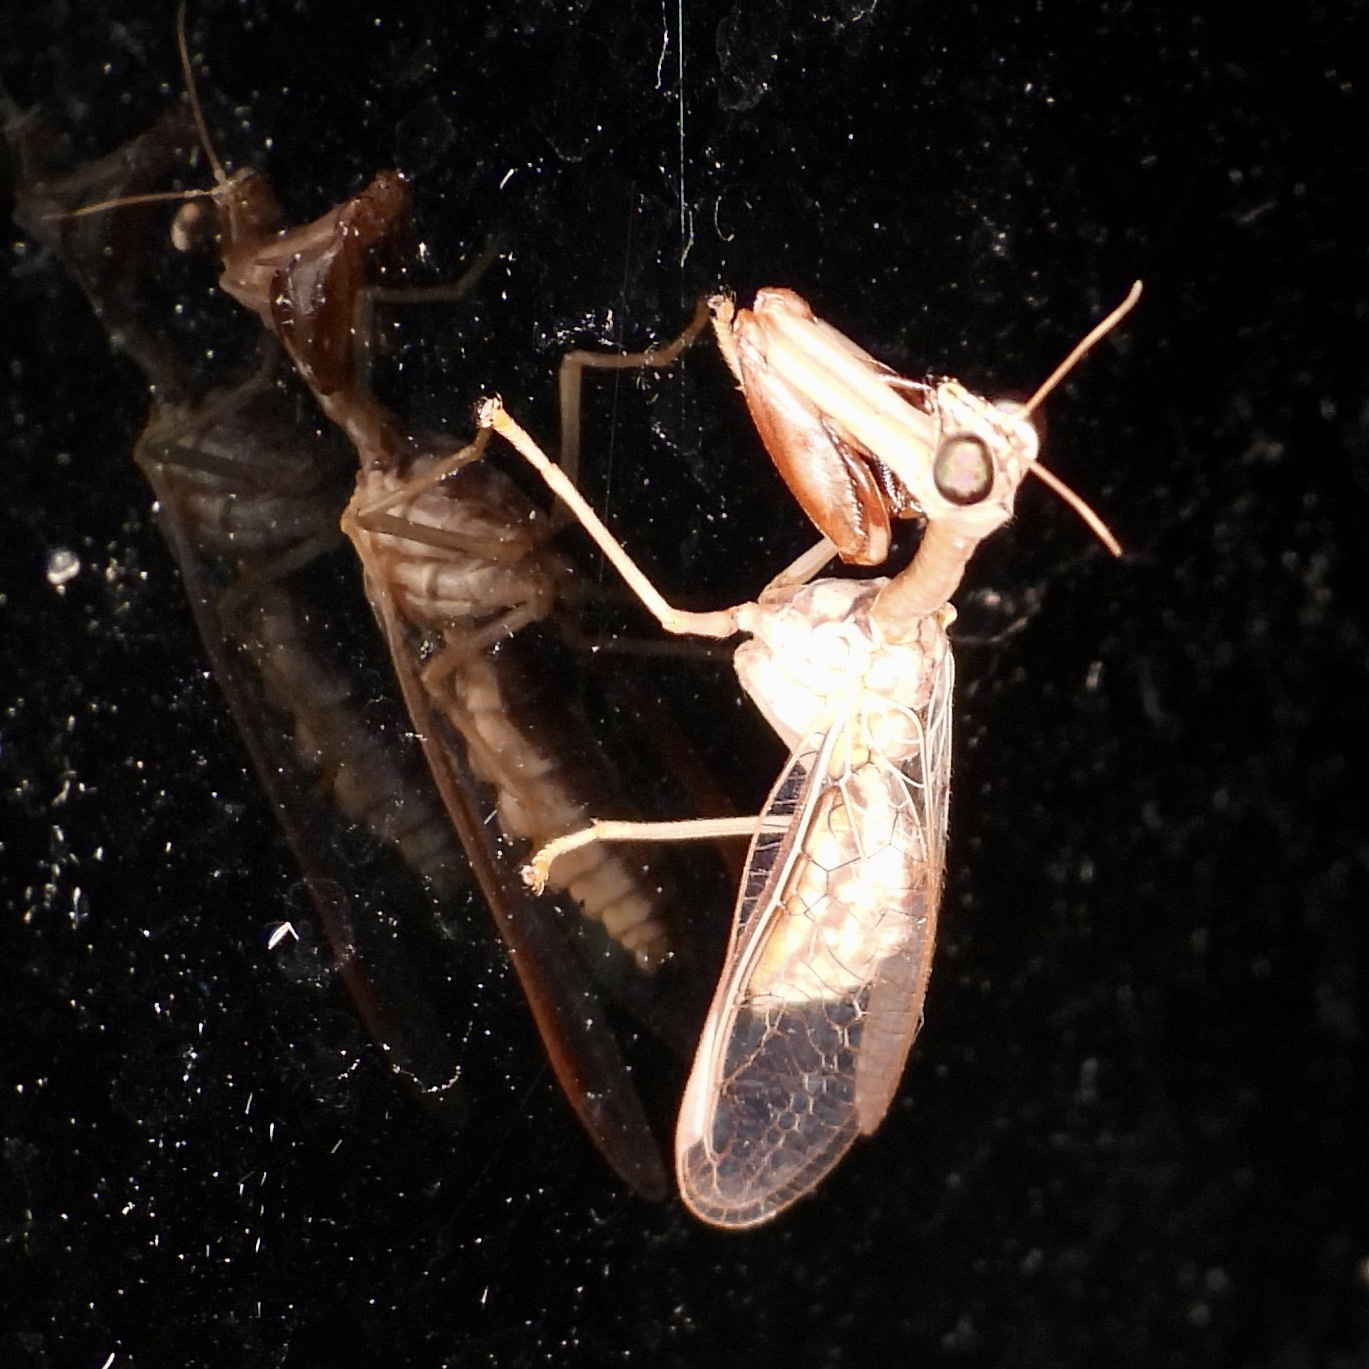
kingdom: Animalia
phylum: Arthropoda
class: Insecta
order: Neuroptera
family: Mantispidae
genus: Dicromantispa
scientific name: Dicromantispa sayi
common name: Say's mantidfly
